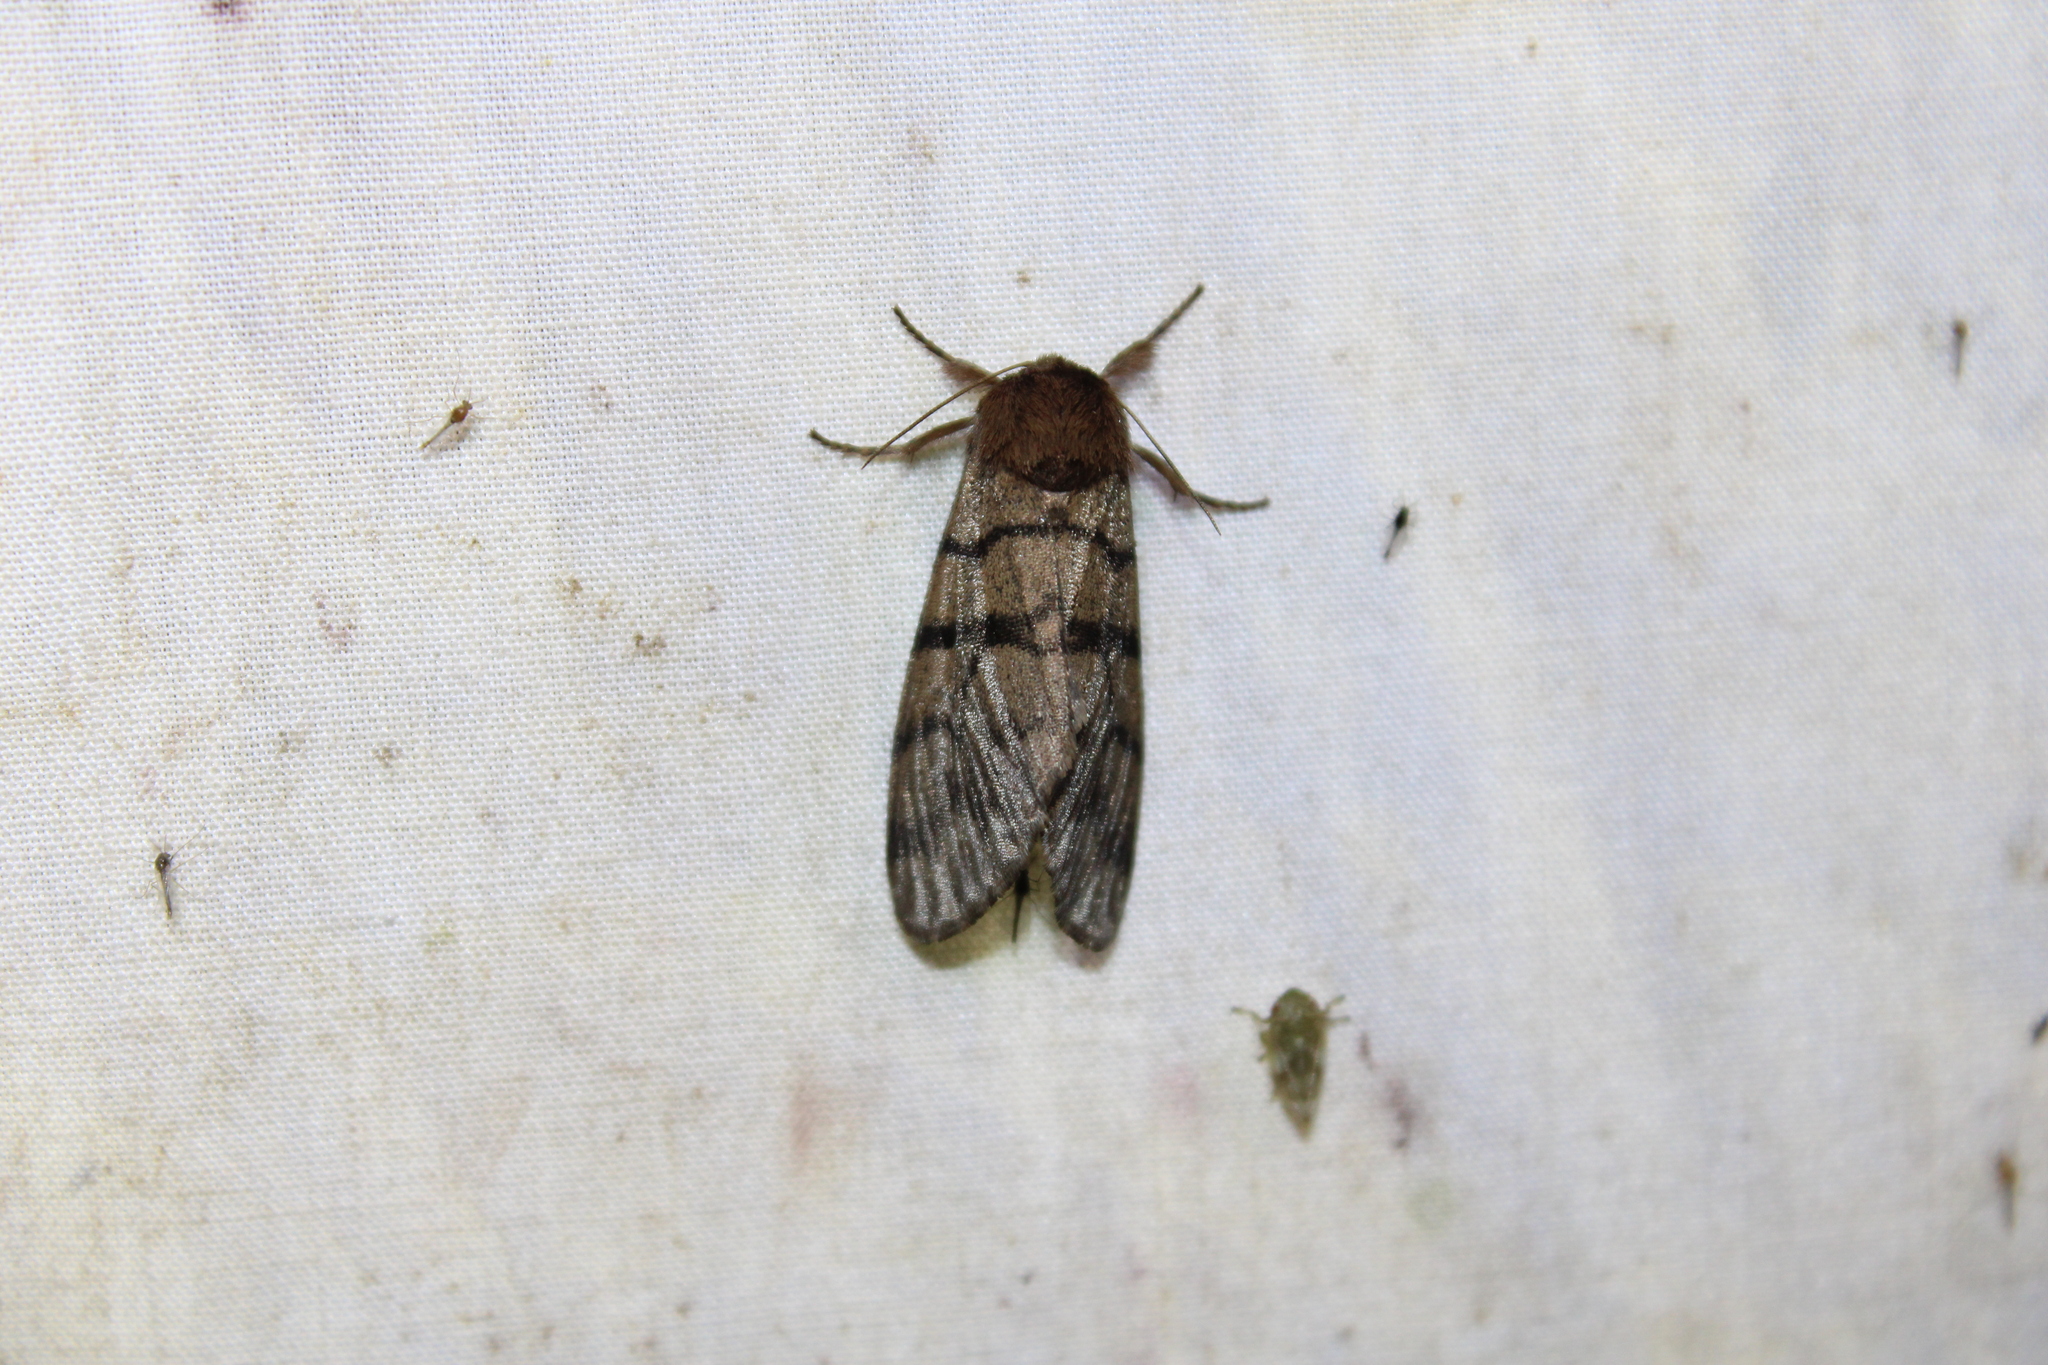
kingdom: Animalia
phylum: Arthropoda
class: Insecta
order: Lepidoptera
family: Noctuidae
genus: Panthea
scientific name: Panthea furcilla
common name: Eastern panthea moth
